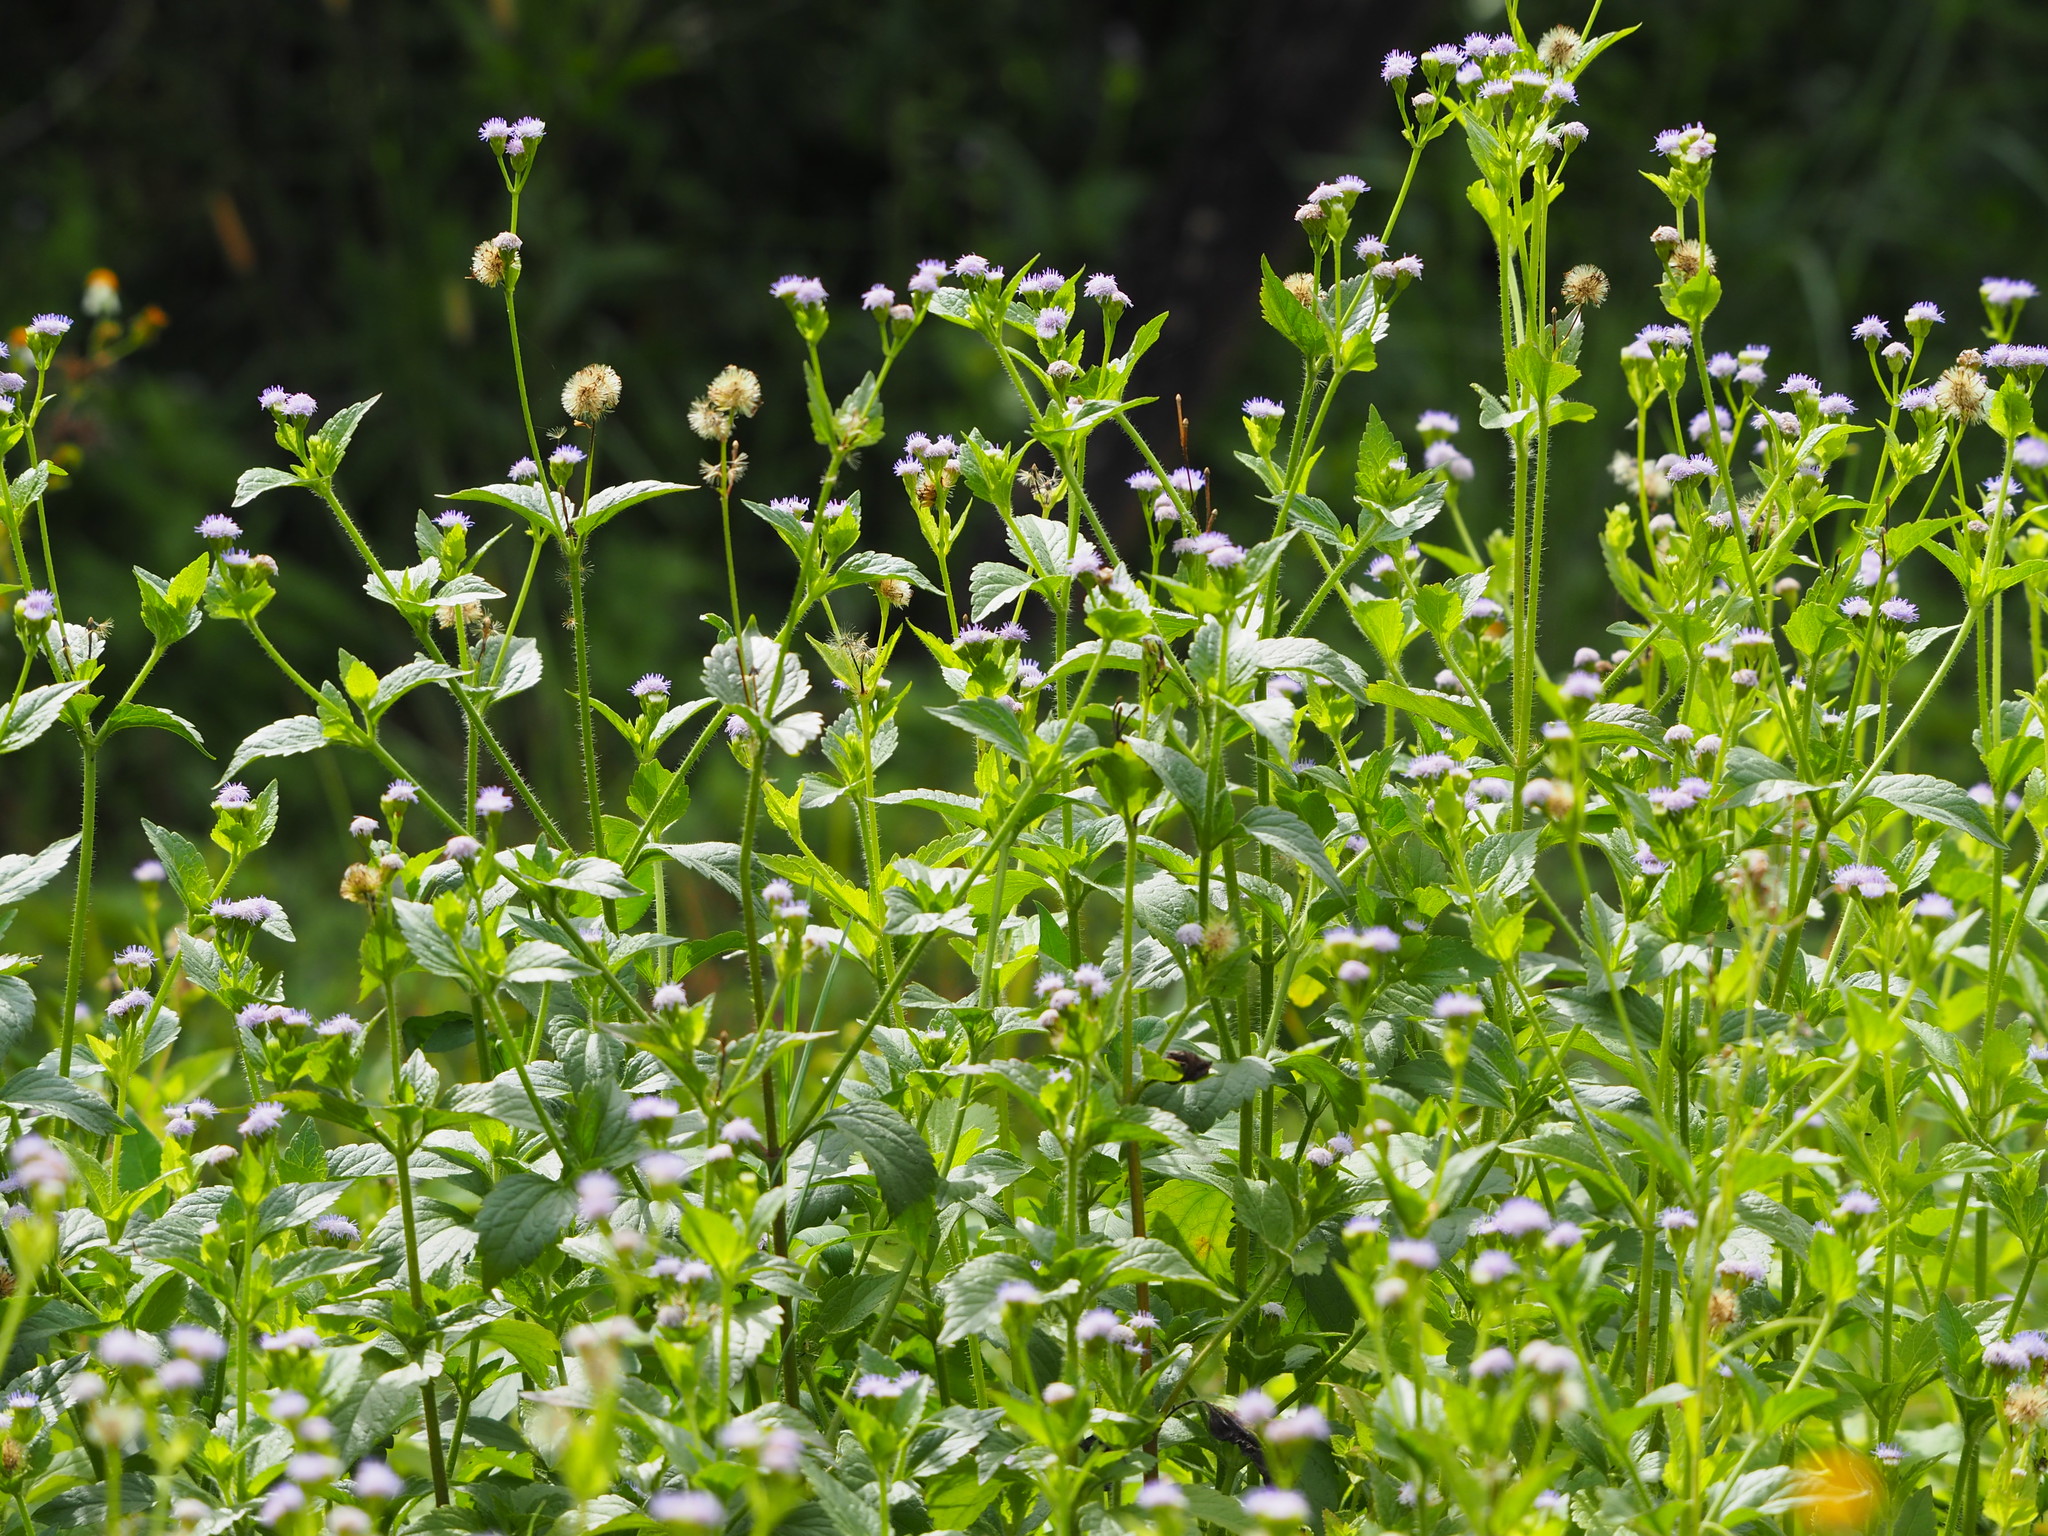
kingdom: Plantae
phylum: Tracheophyta
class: Magnoliopsida
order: Asterales
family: Asteraceae
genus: Praxelis
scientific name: Praxelis clematidea
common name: Praxelis
